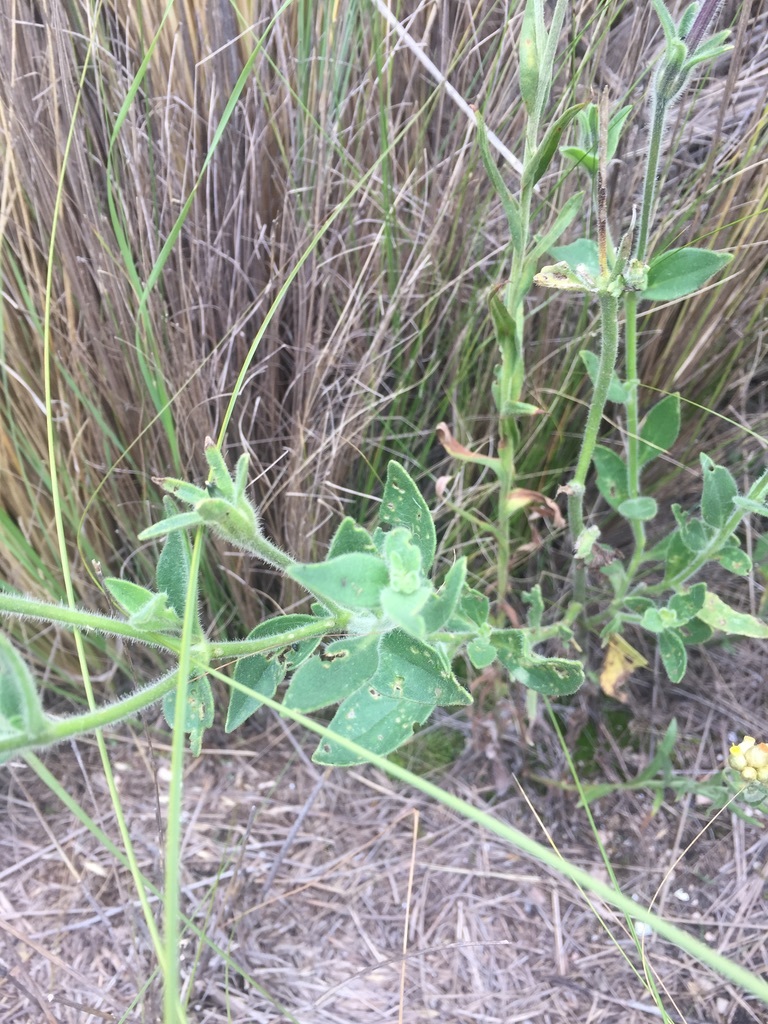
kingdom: Plantae
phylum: Tracheophyta
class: Magnoliopsida
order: Solanales
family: Solanaceae
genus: Petunia
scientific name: Petunia axillaris
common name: Large white petunia
